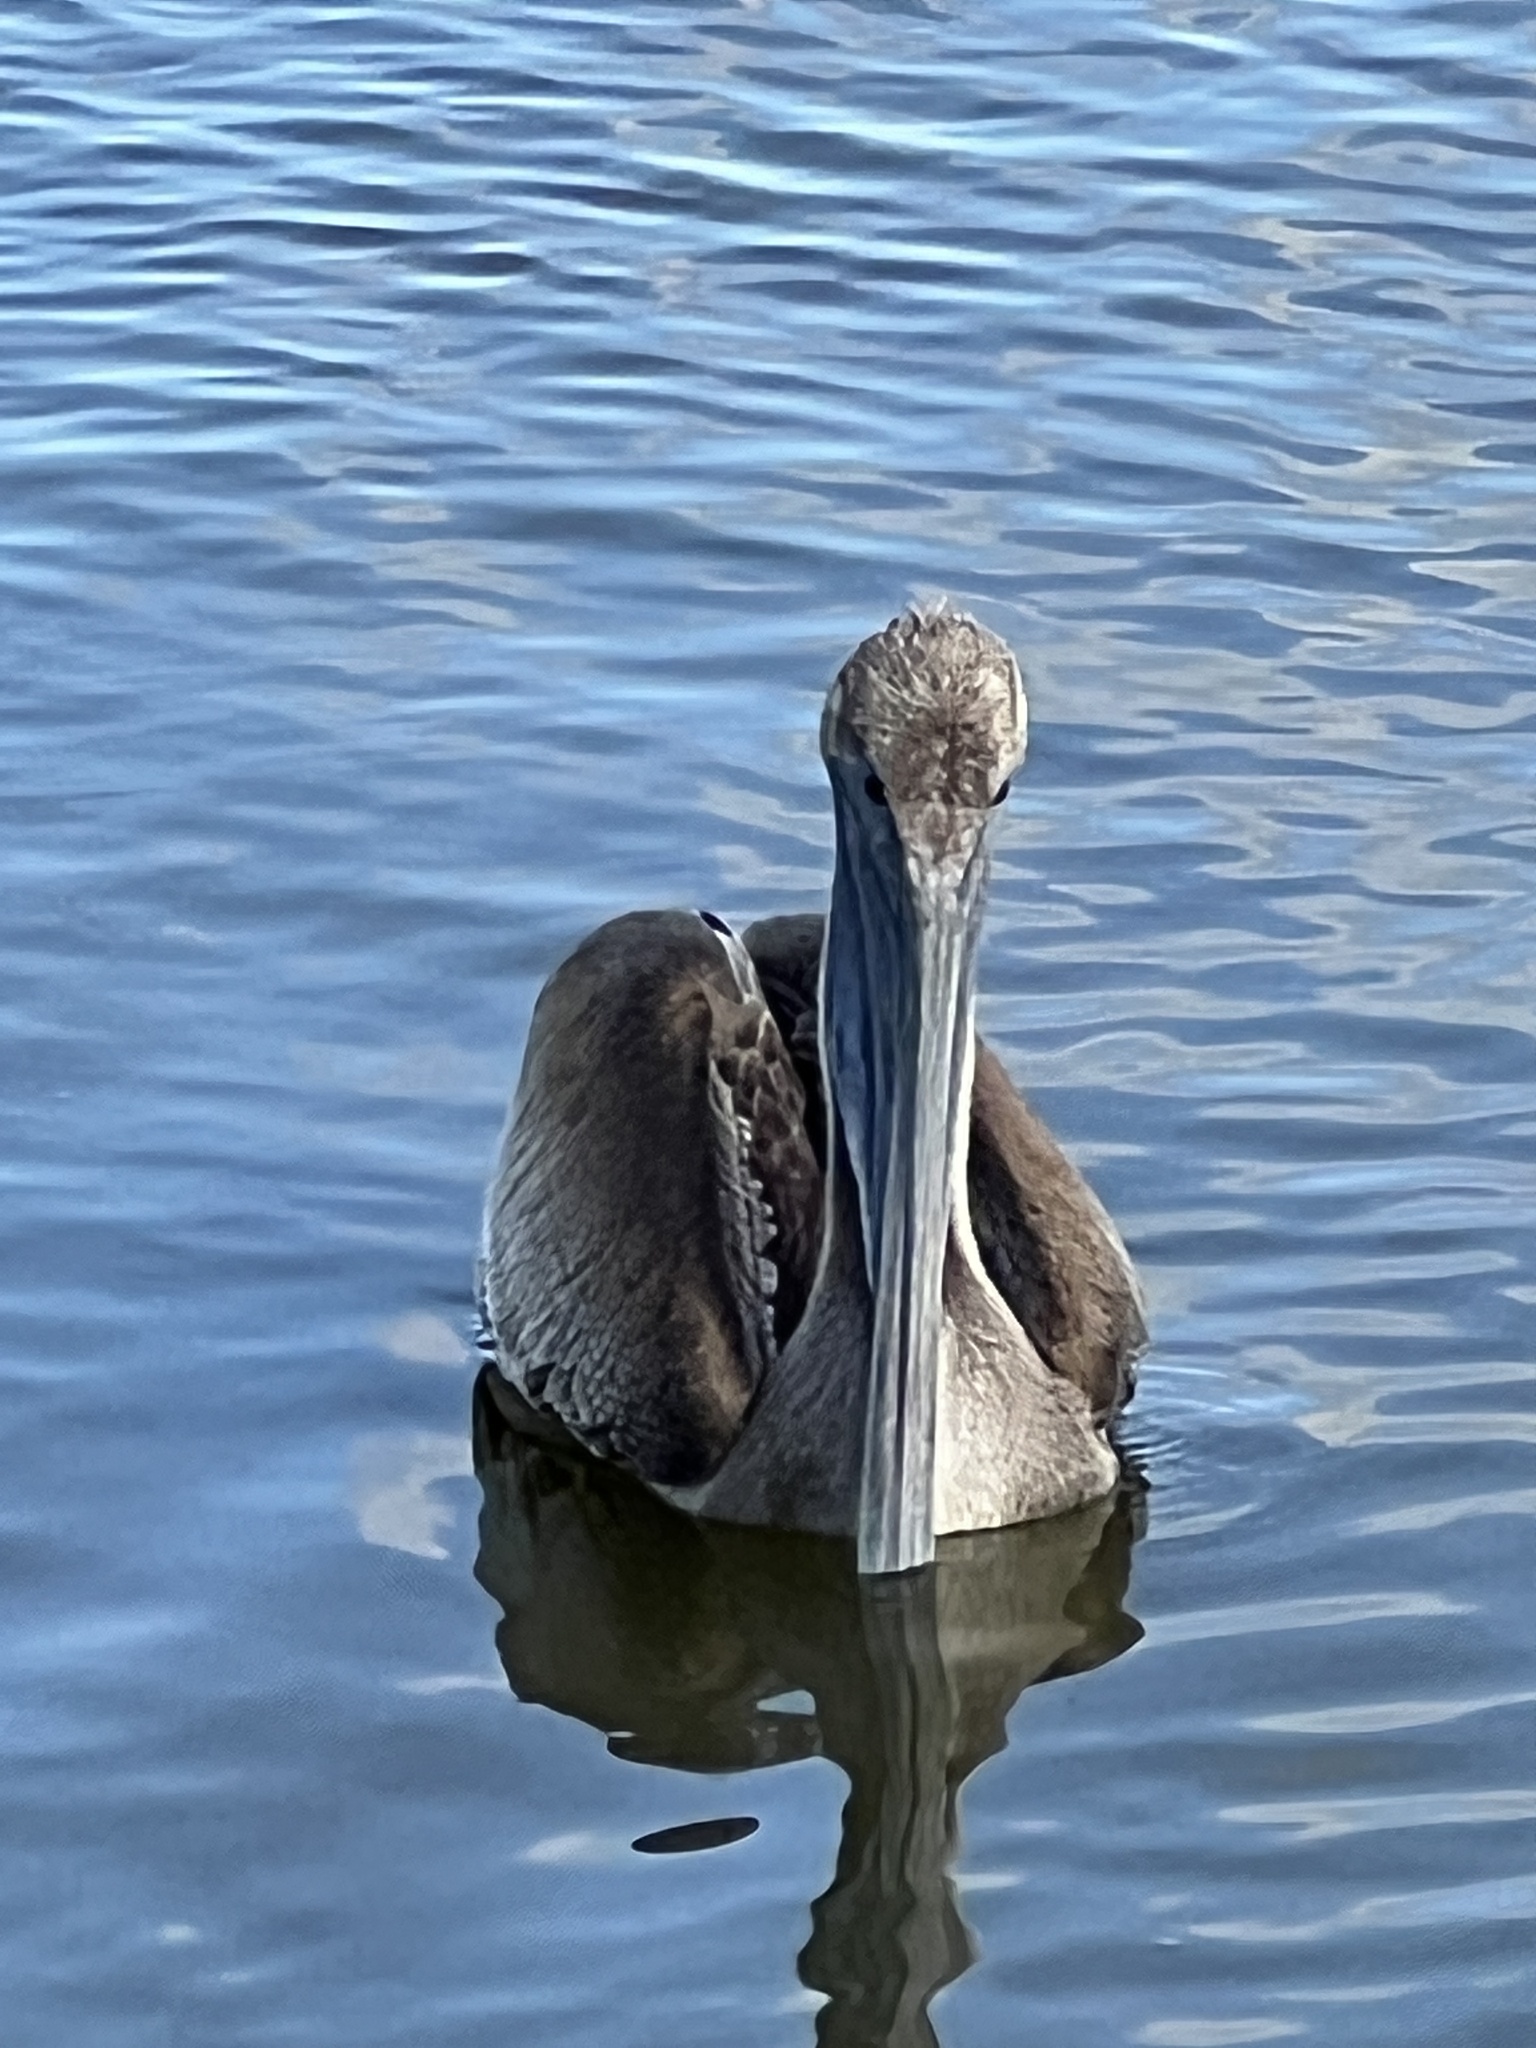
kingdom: Animalia
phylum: Chordata
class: Aves
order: Pelecaniformes
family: Pelecanidae
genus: Pelecanus
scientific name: Pelecanus occidentalis
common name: Brown pelican
